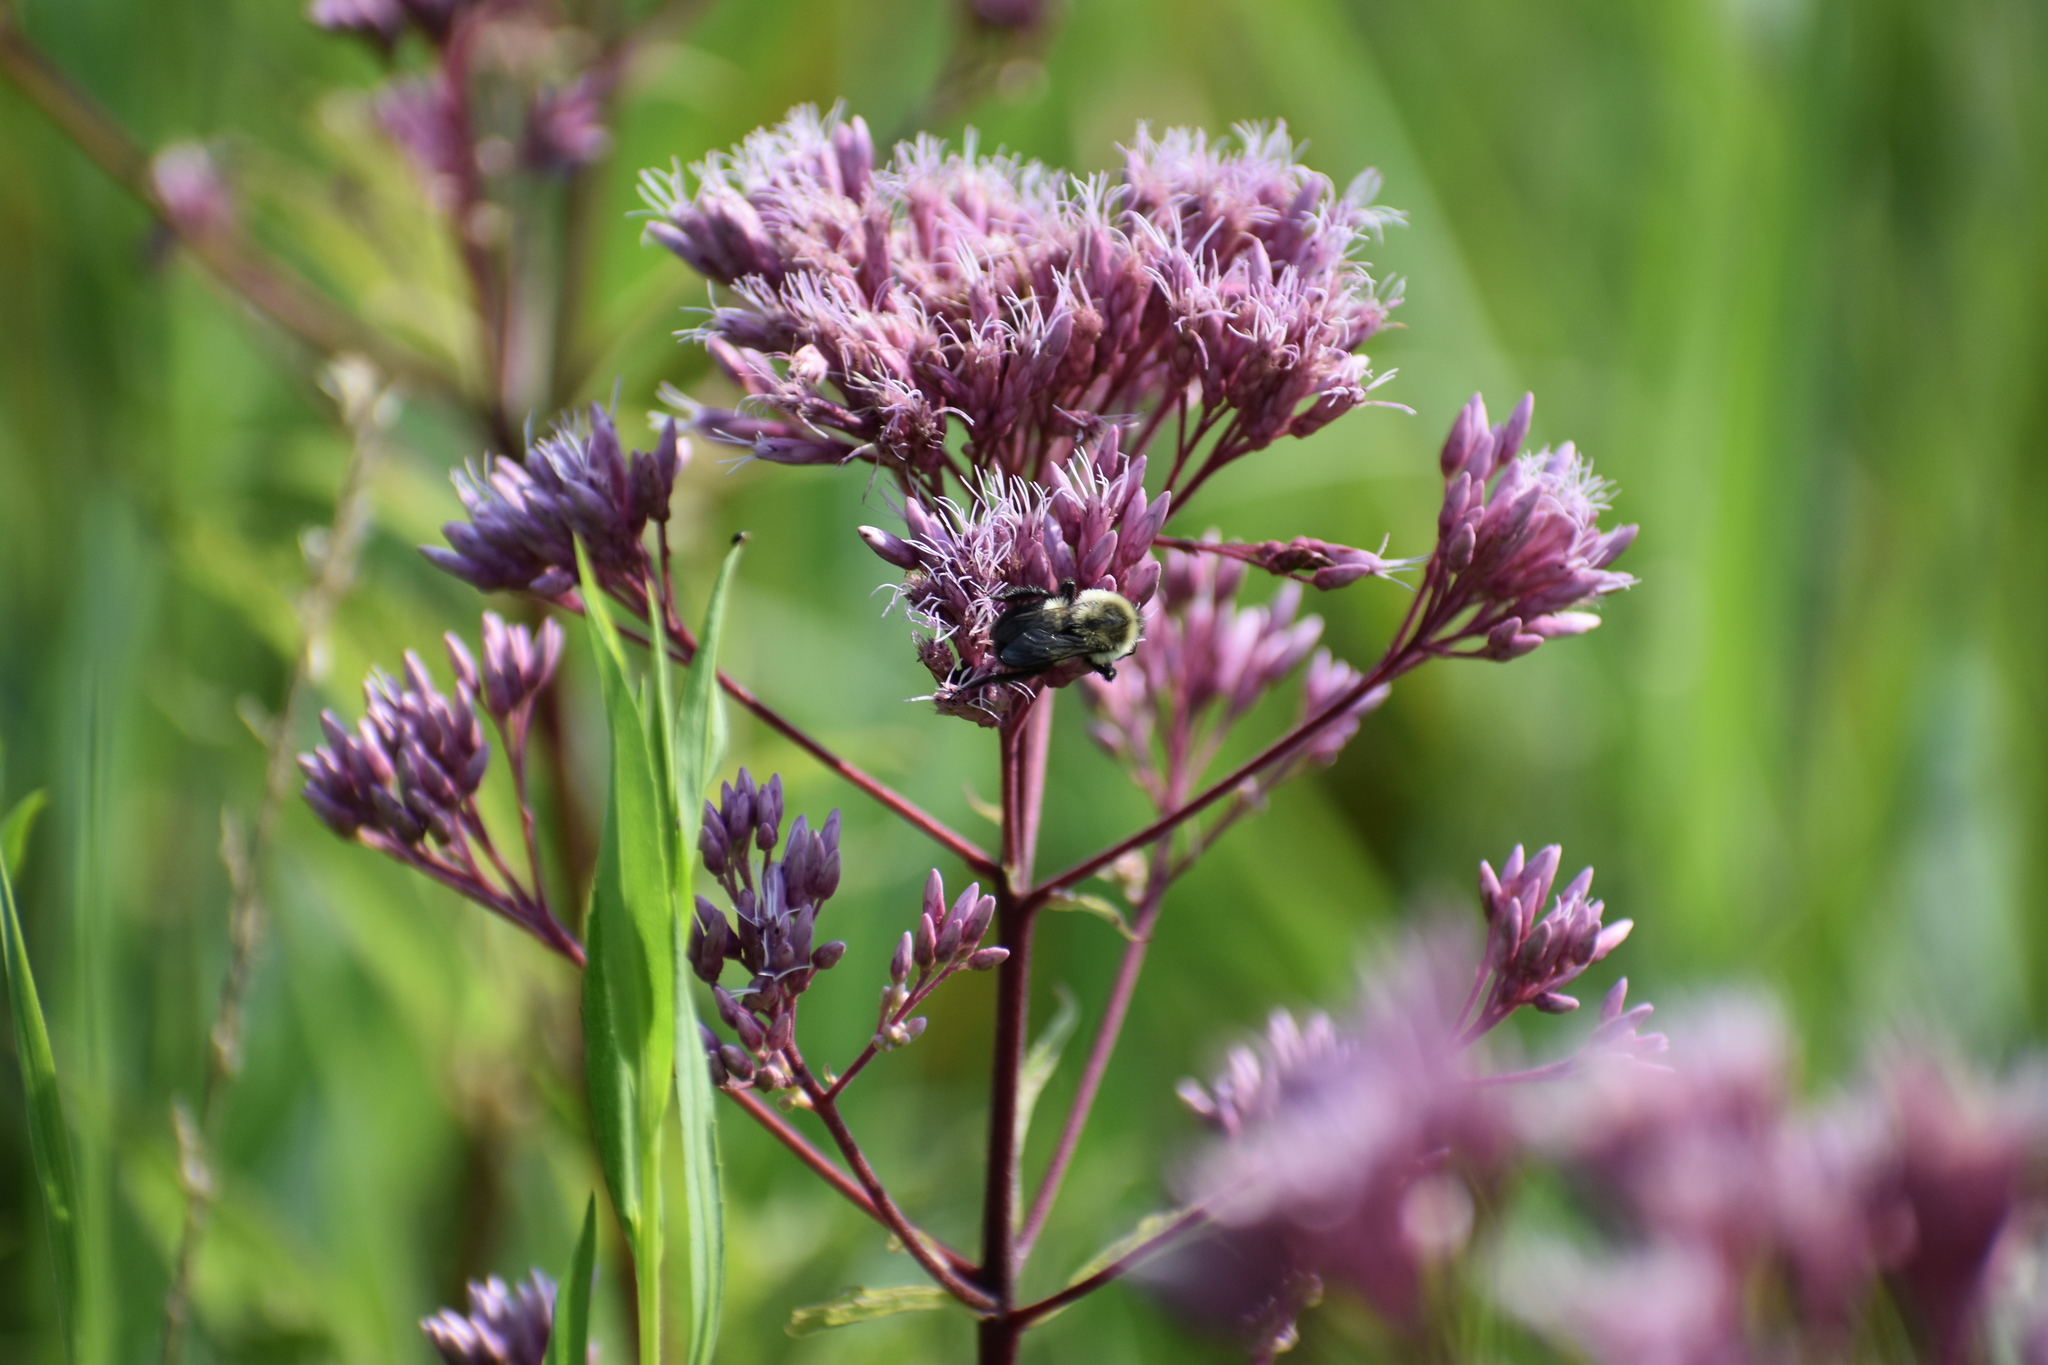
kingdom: Animalia
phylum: Arthropoda
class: Insecta
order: Hymenoptera
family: Apidae
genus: Bombus
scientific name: Bombus impatiens
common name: Common eastern bumble bee
